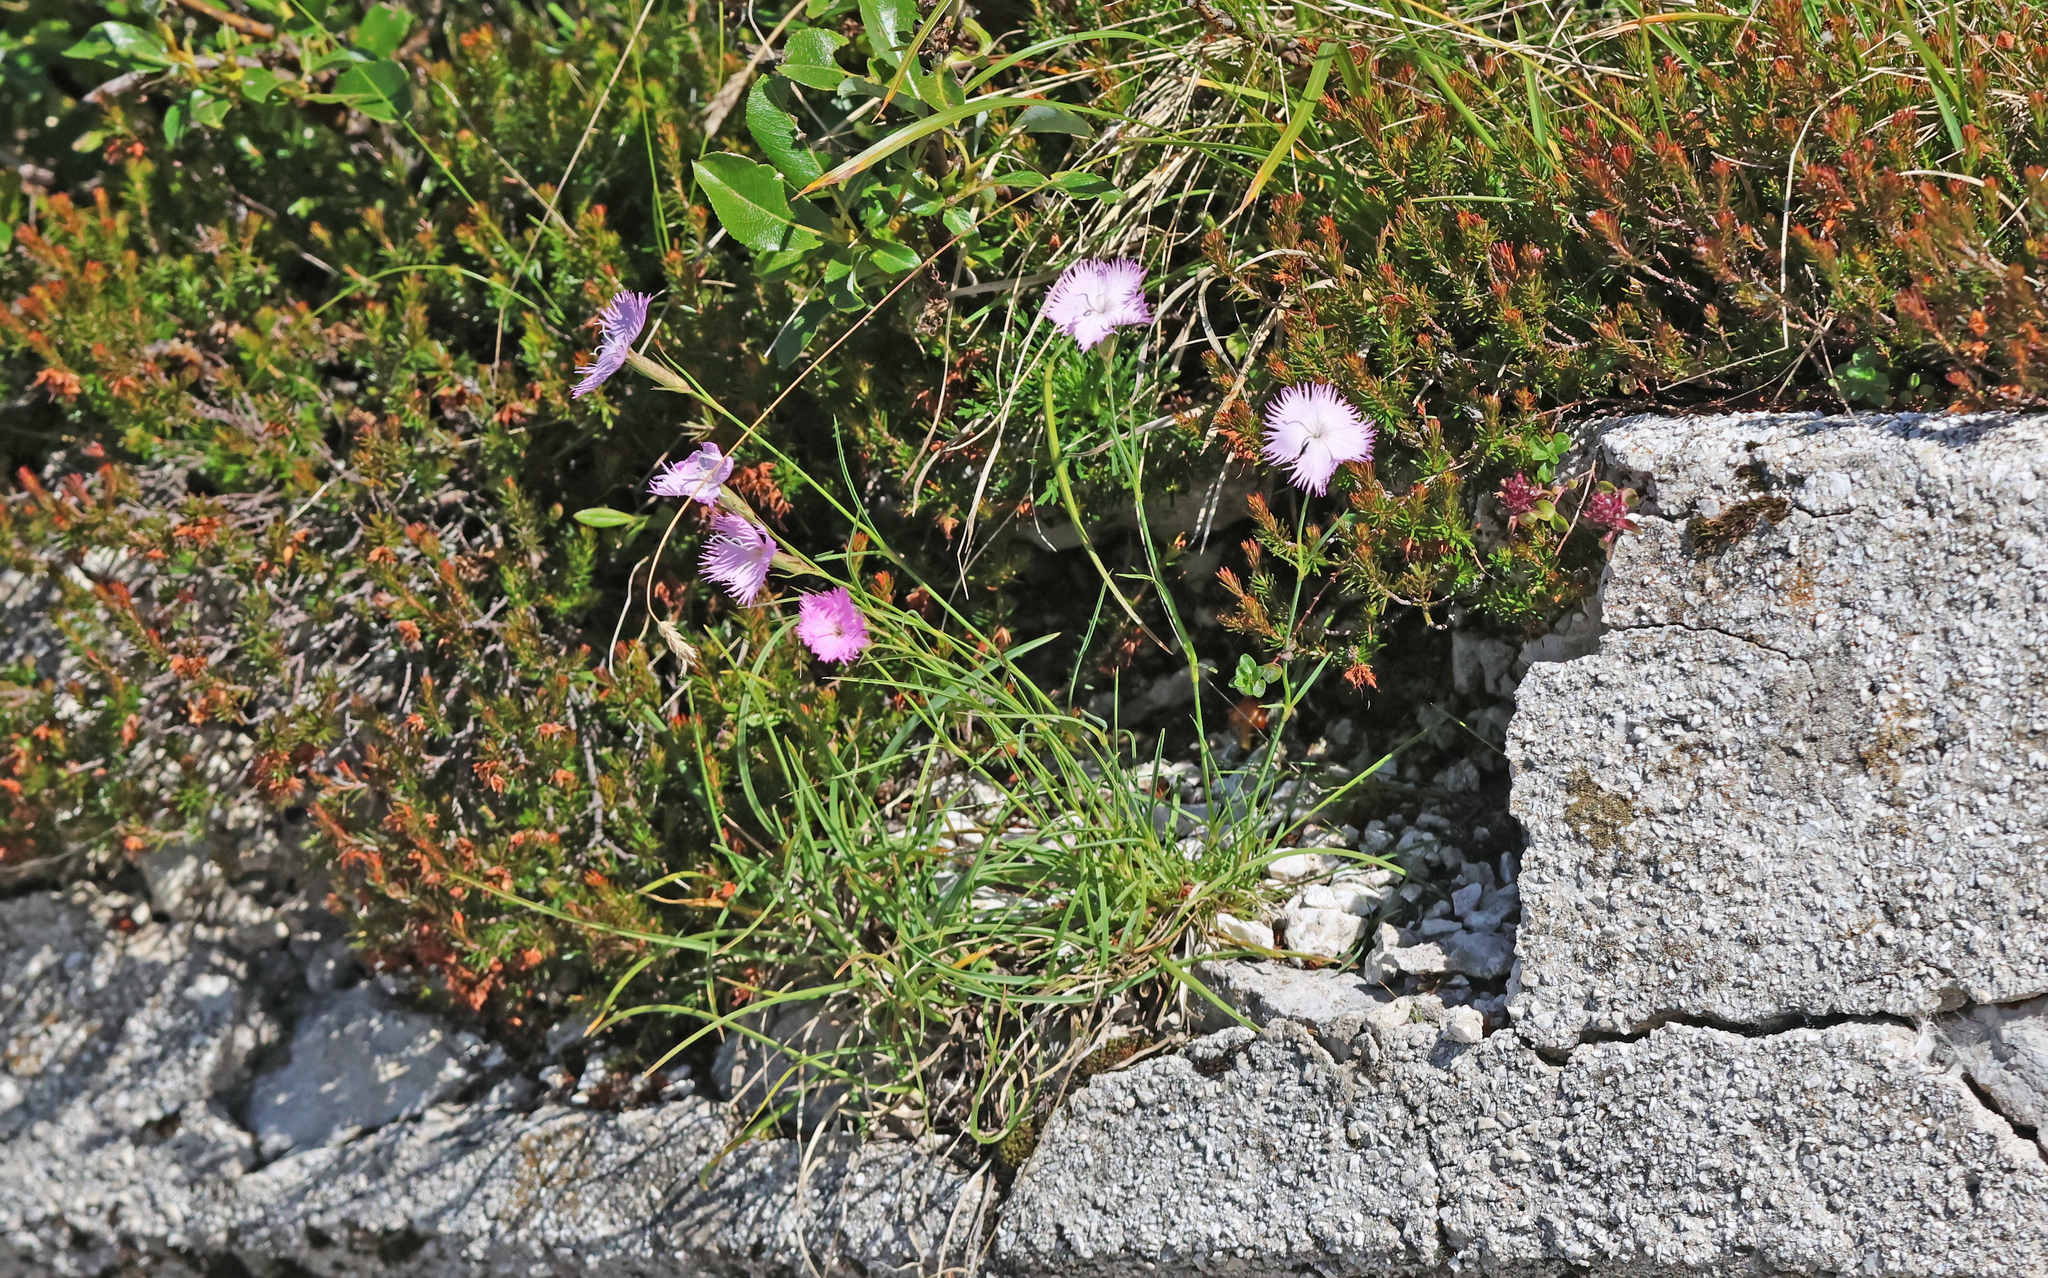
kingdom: Plantae
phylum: Tracheophyta
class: Magnoliopsida
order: Caryophyllales
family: Caryophyllaceae
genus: Dianthus
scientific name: Dianthus sternbergii
